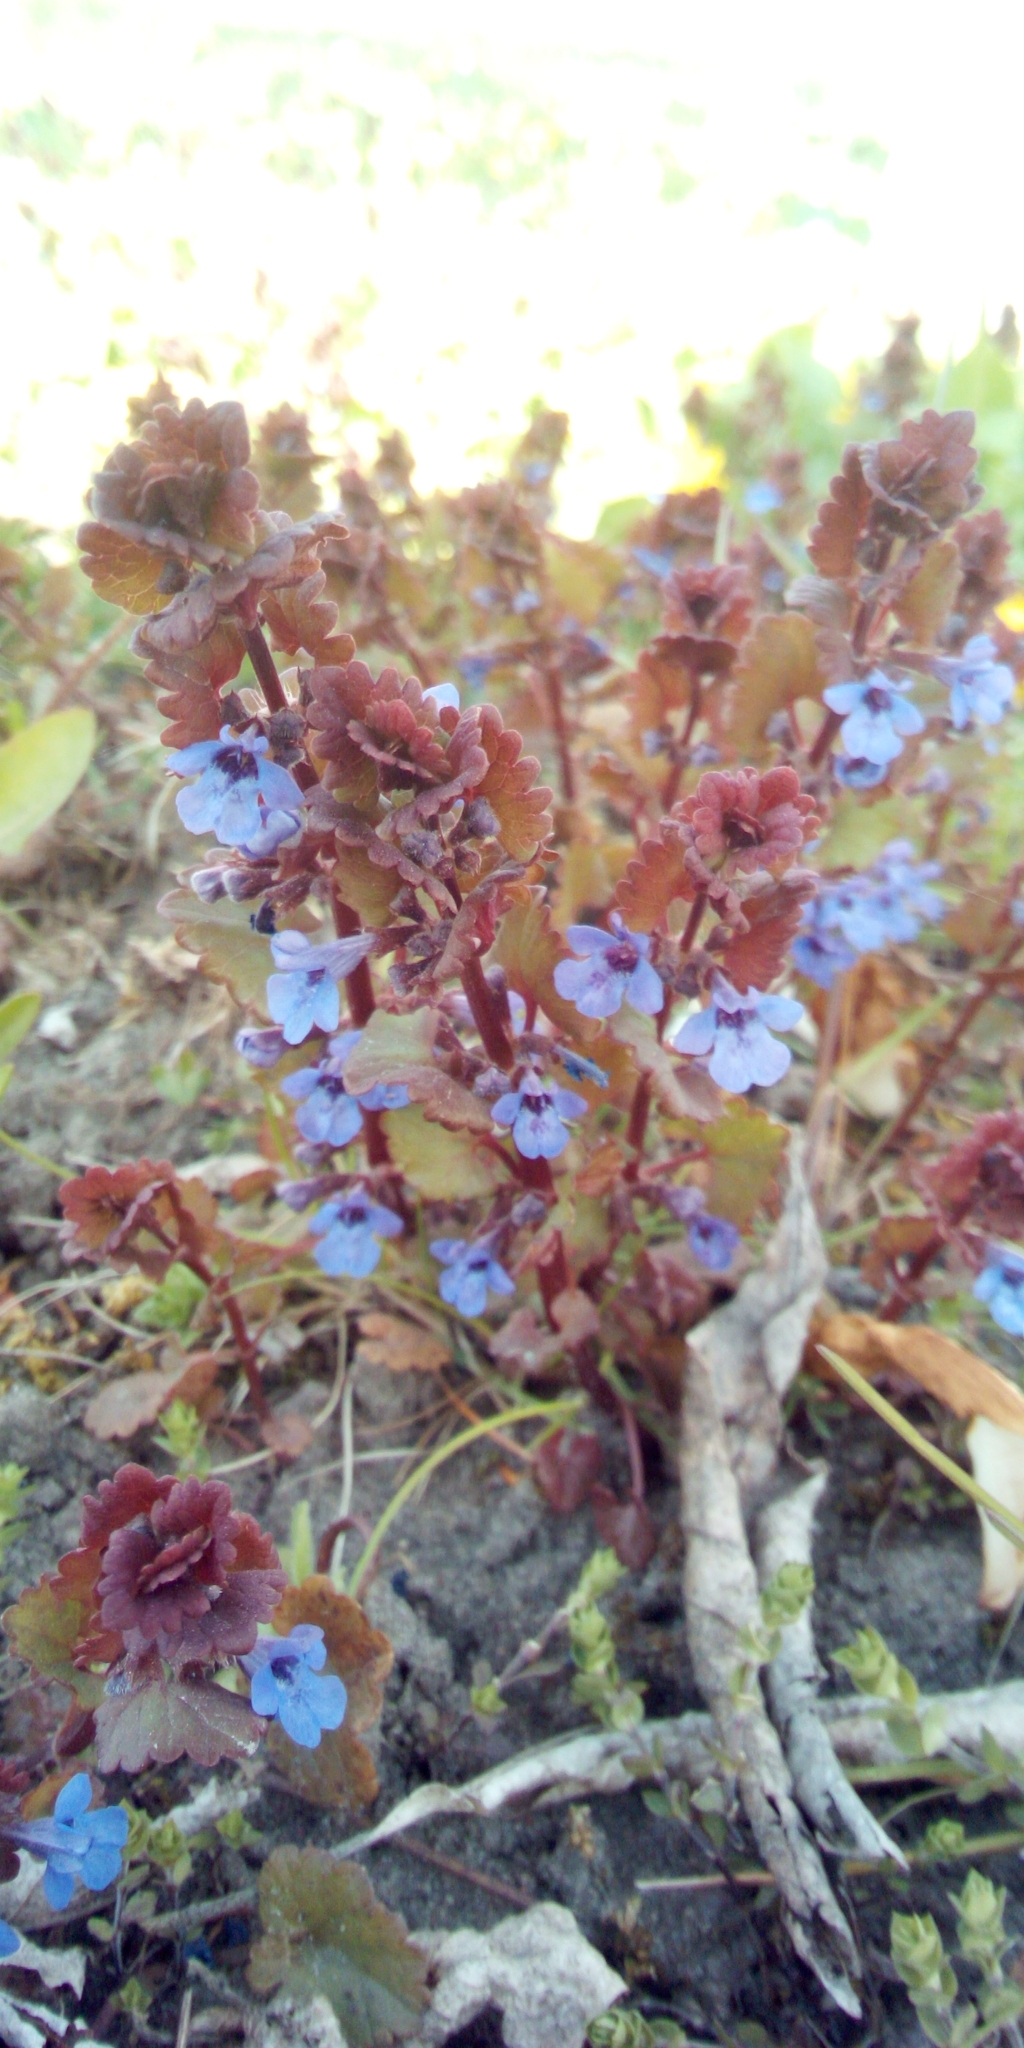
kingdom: Plantae
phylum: Tracheophyta
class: Magnoliopsida
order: Lamiales
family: Lamiaceae
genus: Glechoma
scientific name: Glechoma hederacea
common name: Ground ivy
